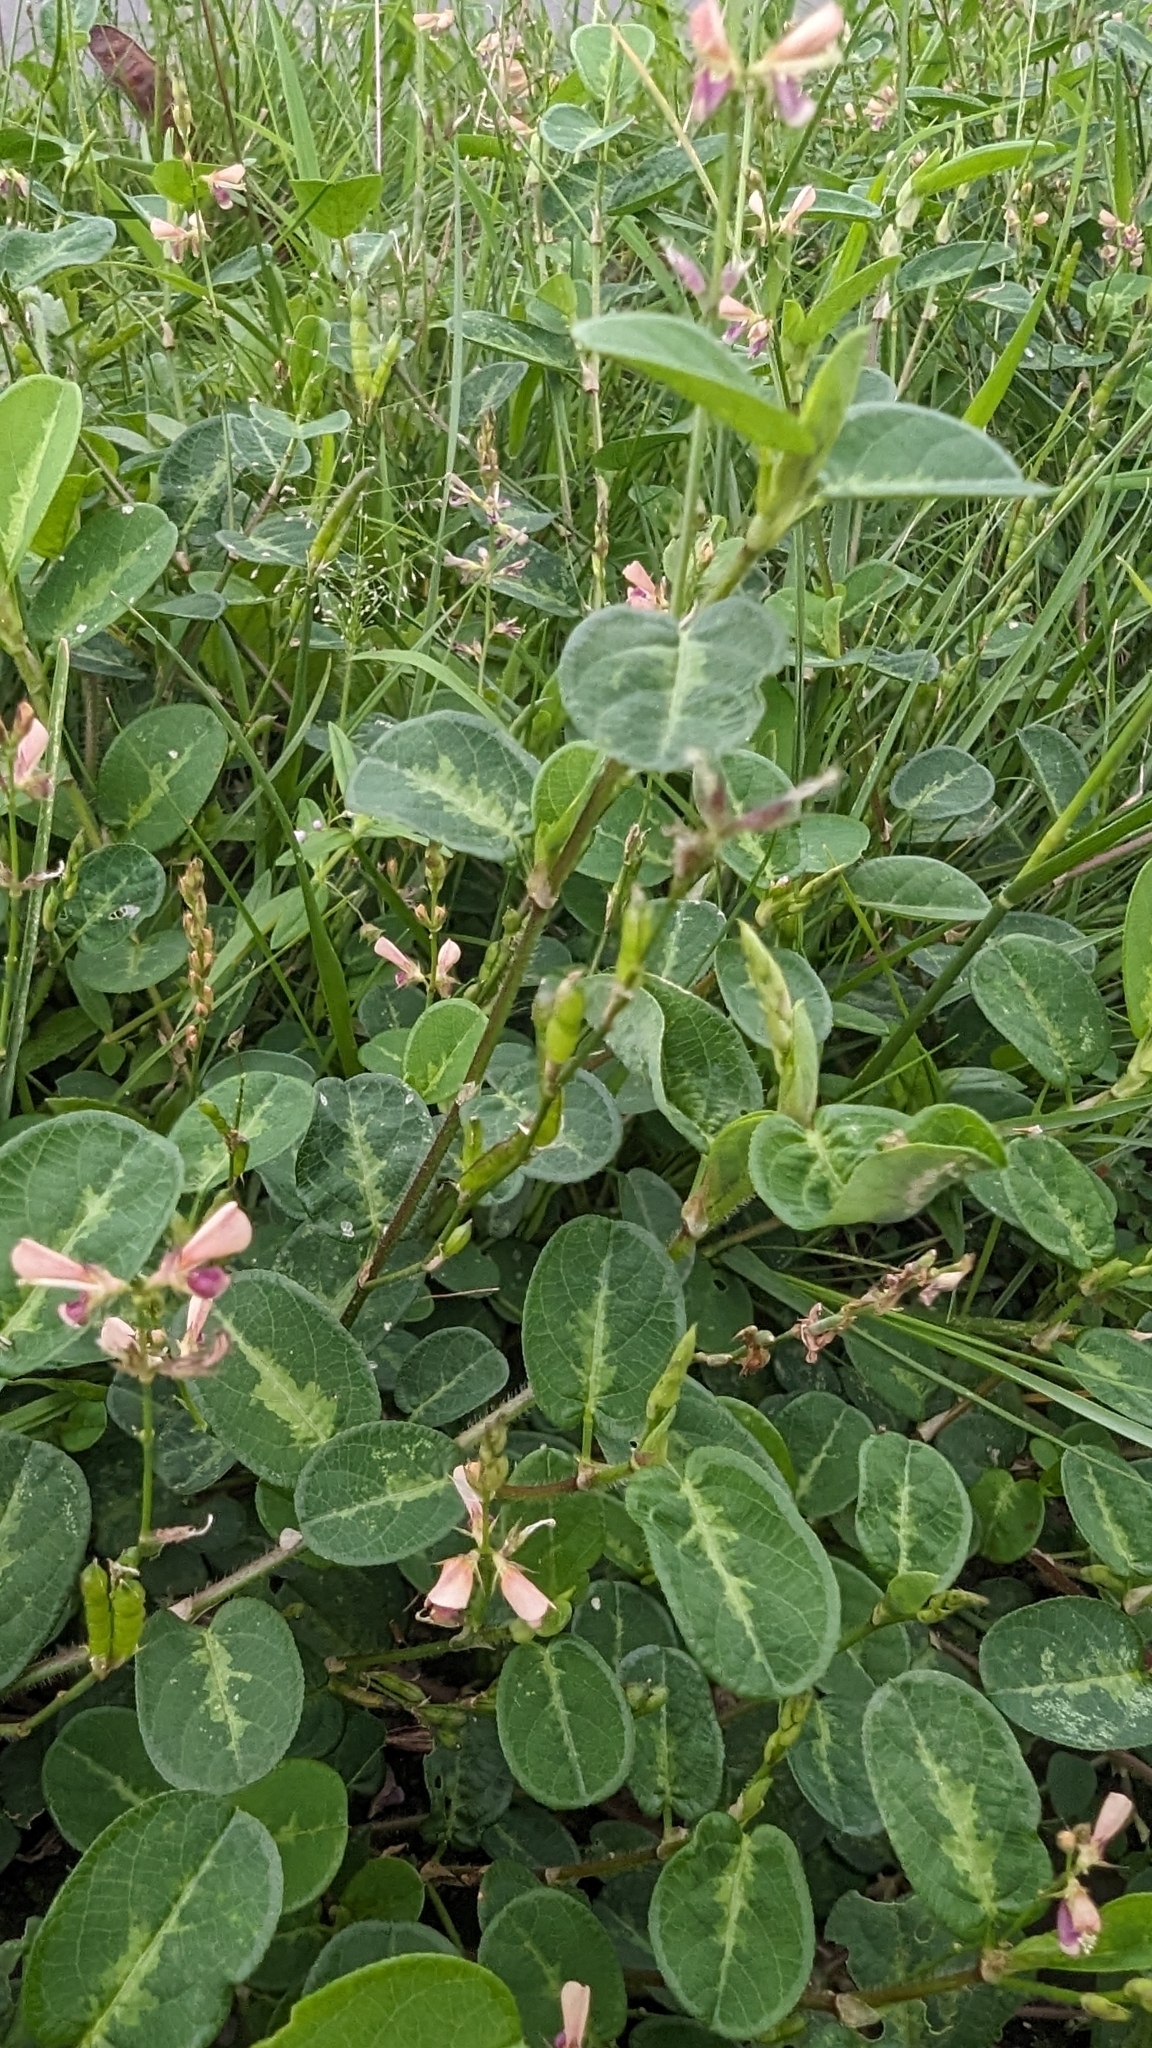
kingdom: Plantae
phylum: Tracheophyta
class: Magnoliopsida
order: Fabales
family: Fabaceae
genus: Alysicarpus
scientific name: Alysicarpus ovalifolius
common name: Alyce clover
